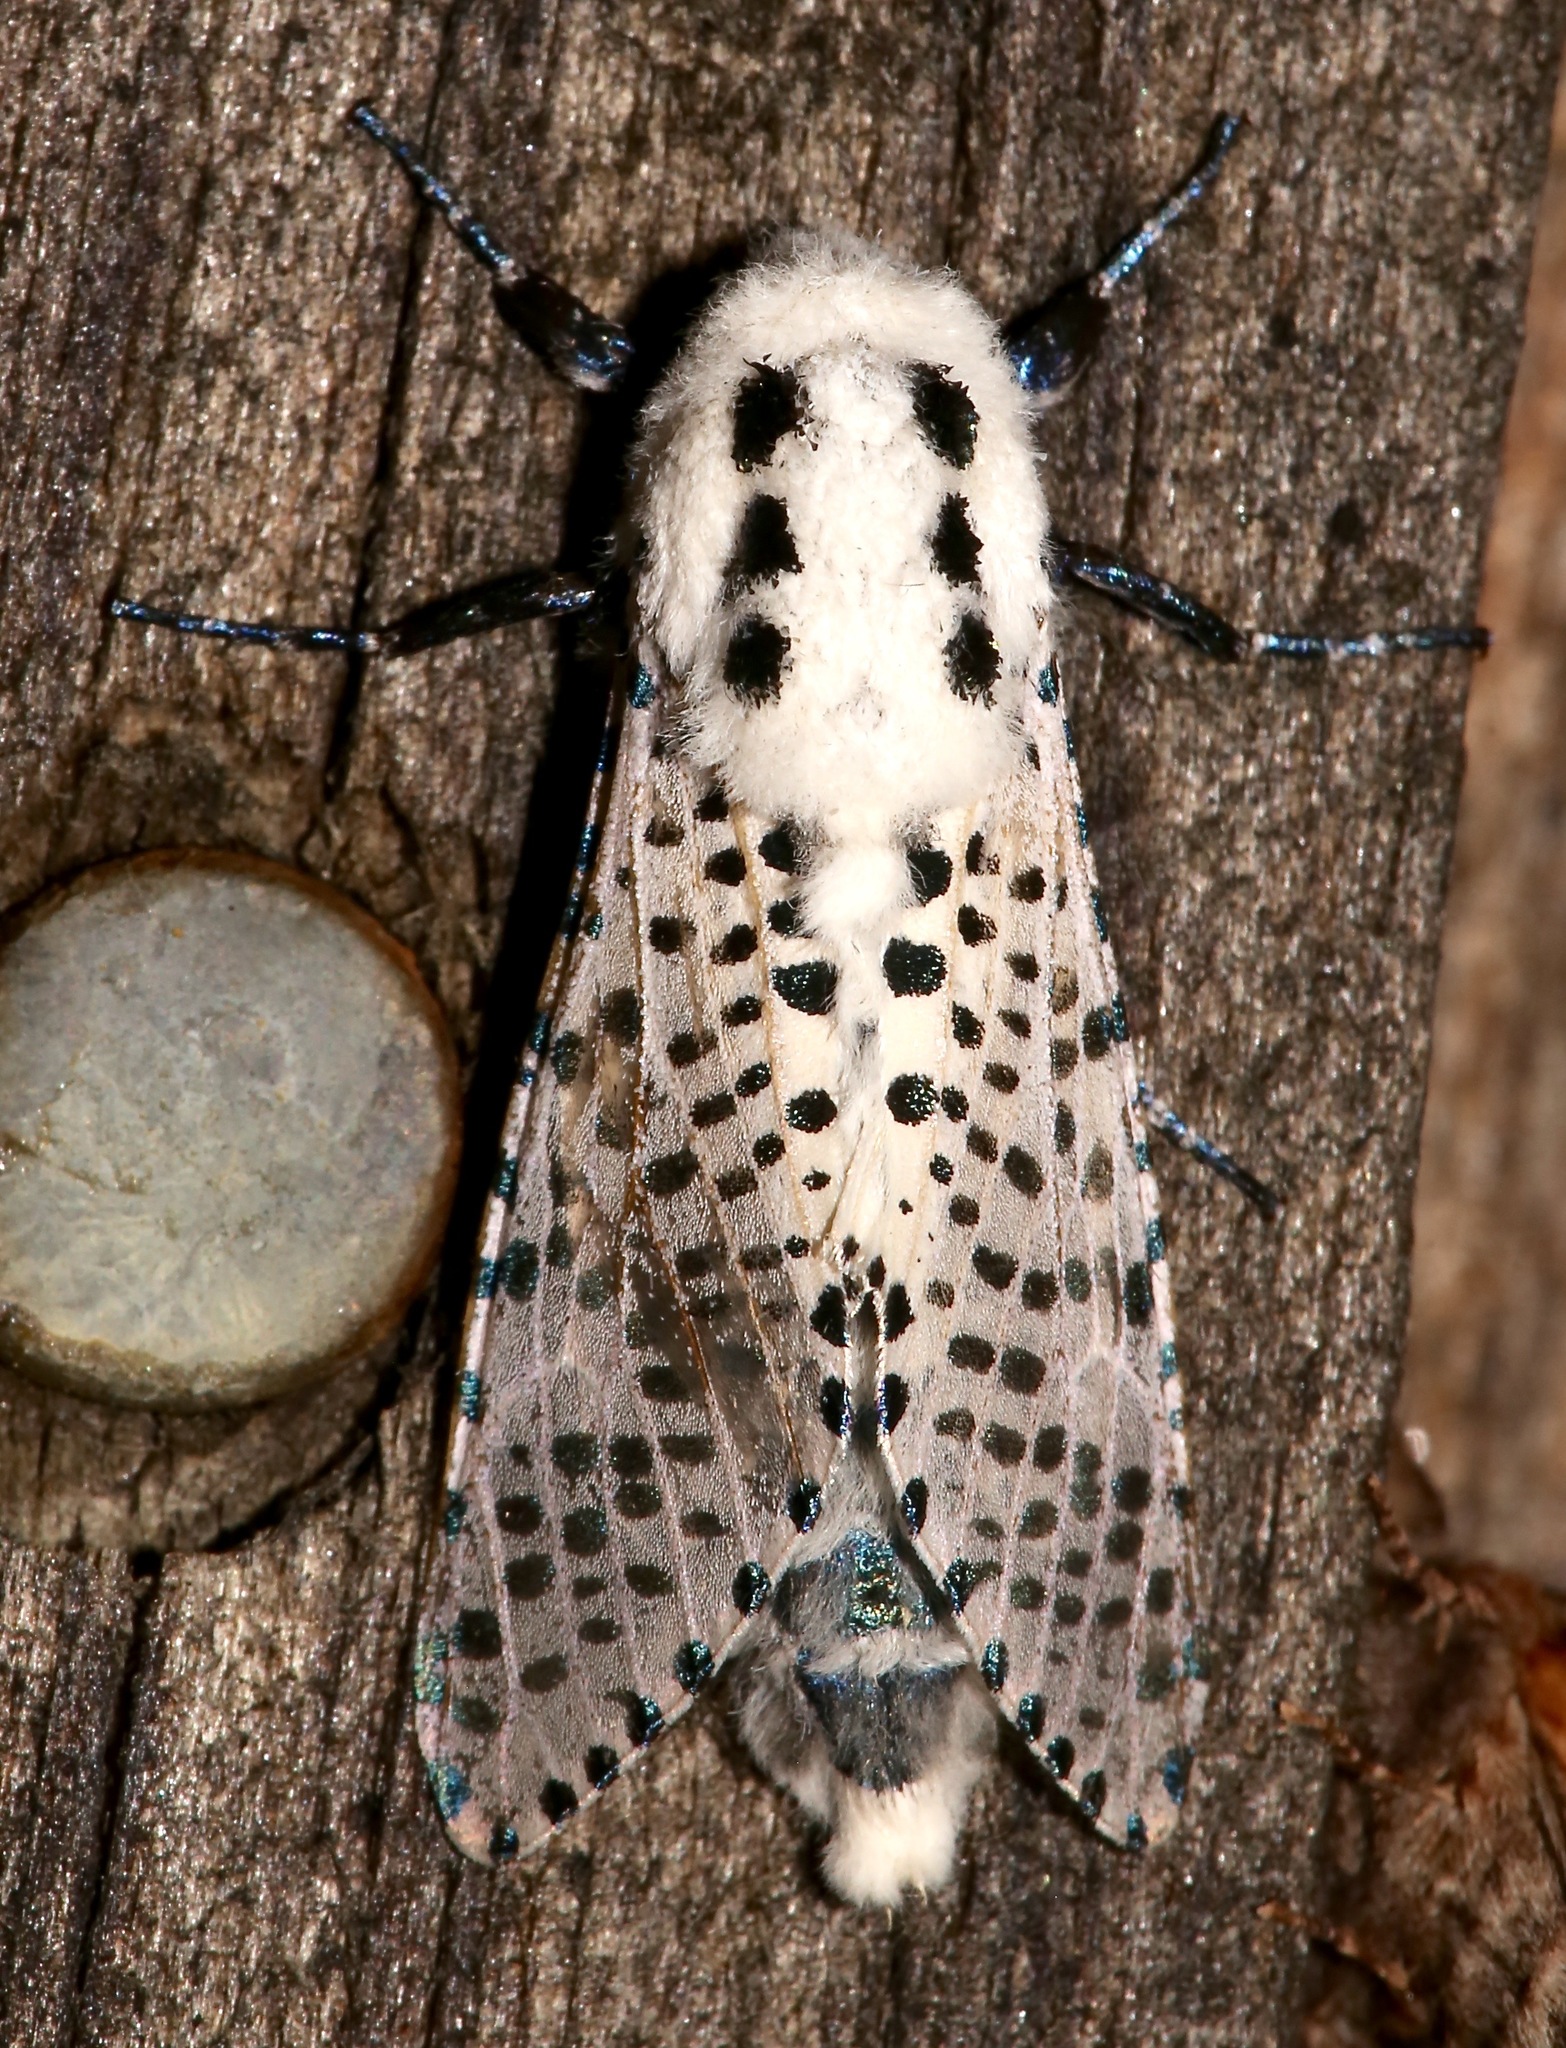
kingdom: Animalia
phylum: Arthropoda
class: Insecta
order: Lepidoptera
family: Cossidae
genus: Zeuzera
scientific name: Zeuzera pyrina
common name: Leopard moth
